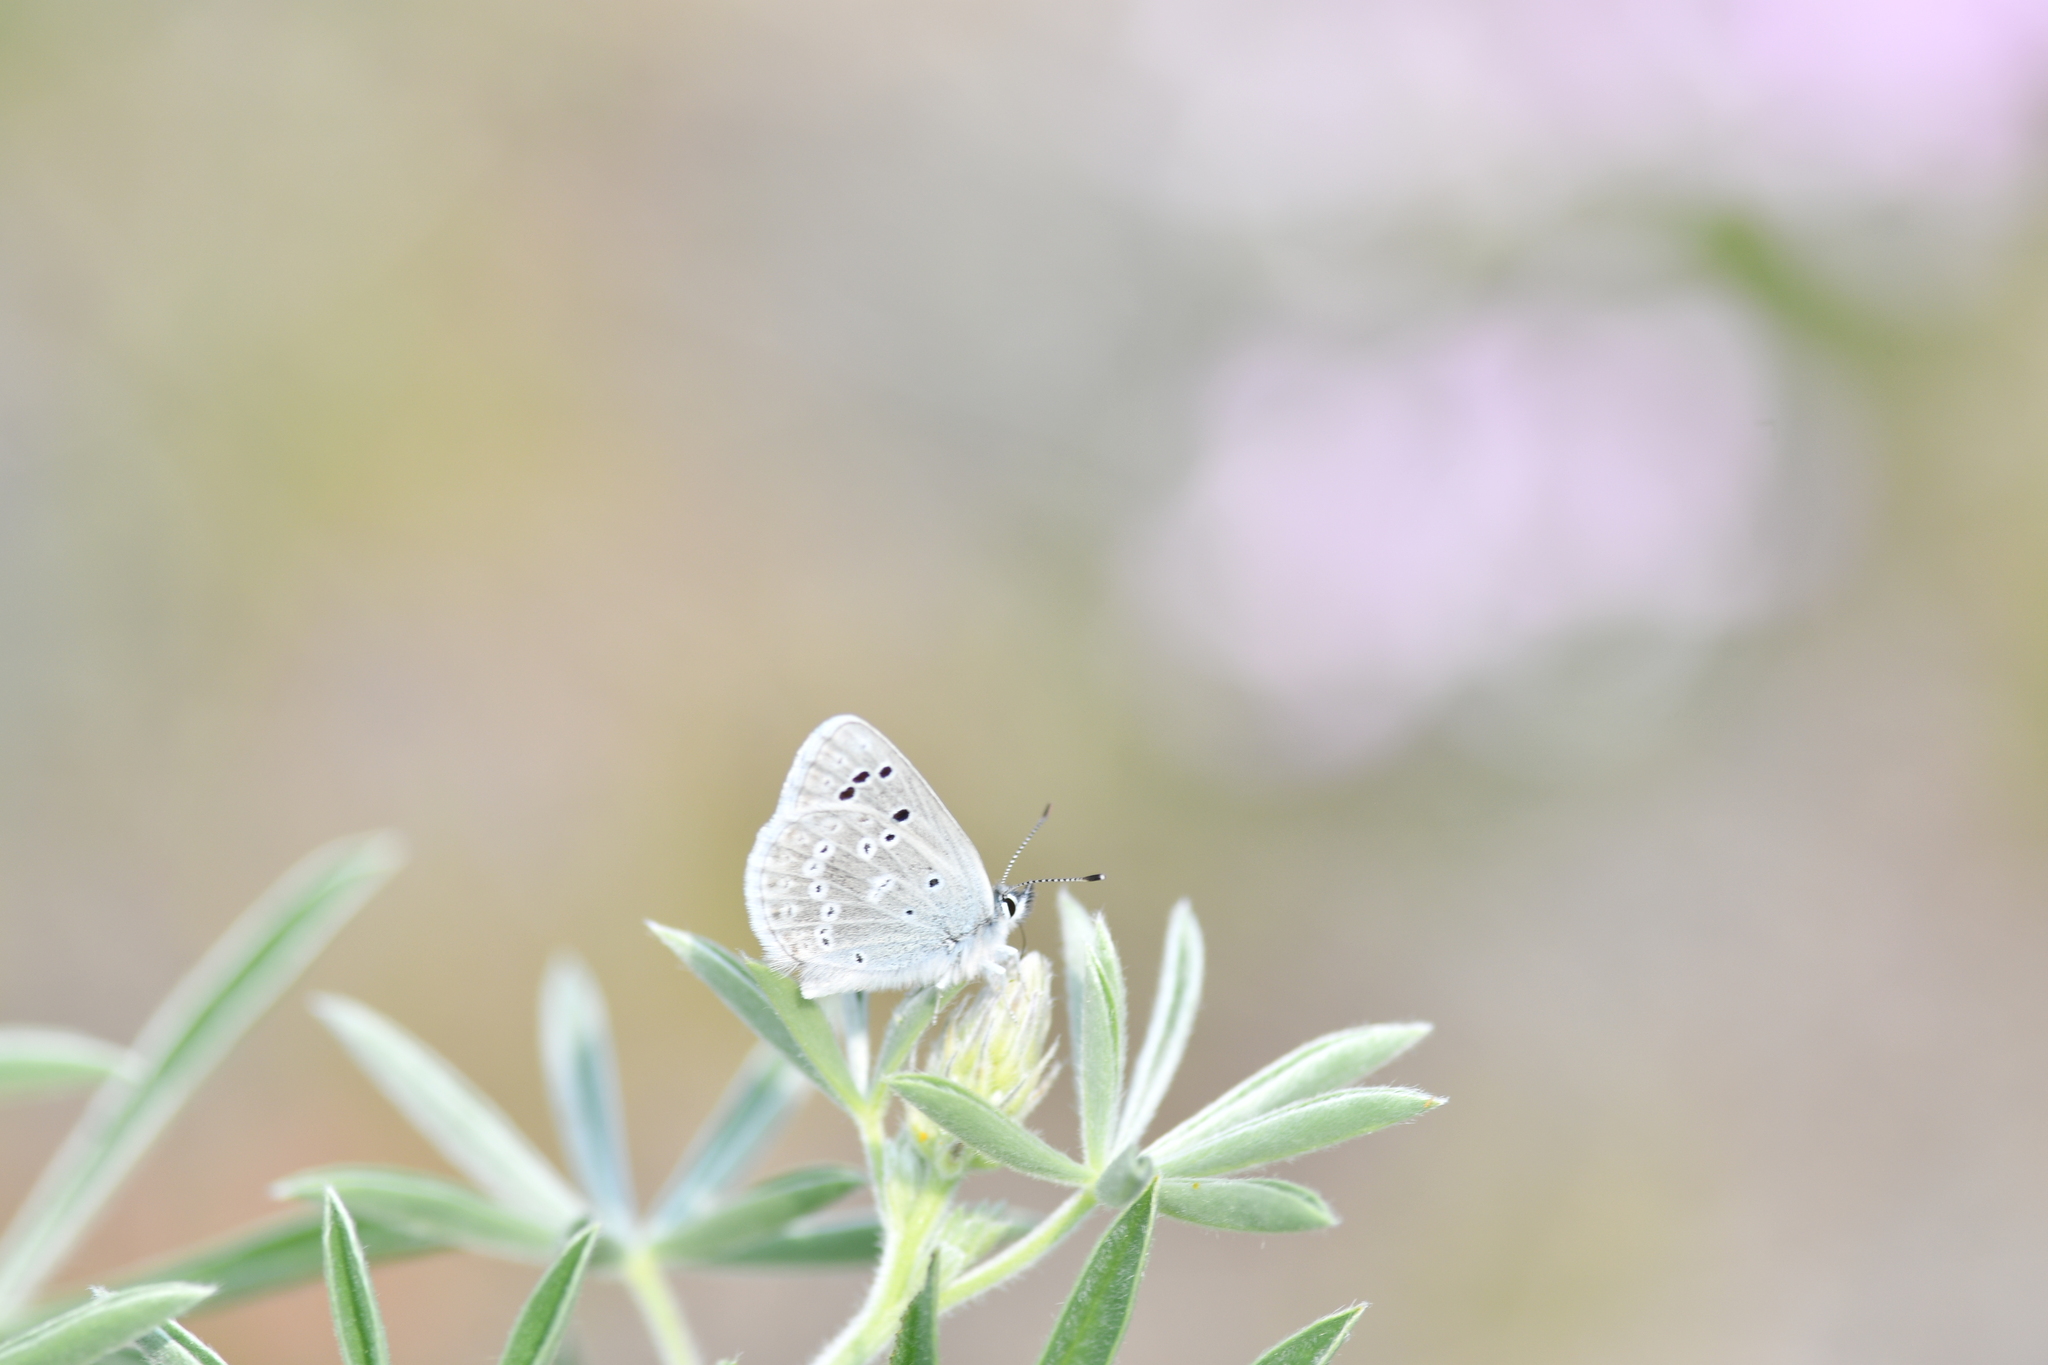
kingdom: Animalia
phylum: Arthropoda
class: Insecta
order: Lepidoptera
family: Lycaenidae
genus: Icaricia
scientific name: Icaricia icarioides
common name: Boisduval's blue
